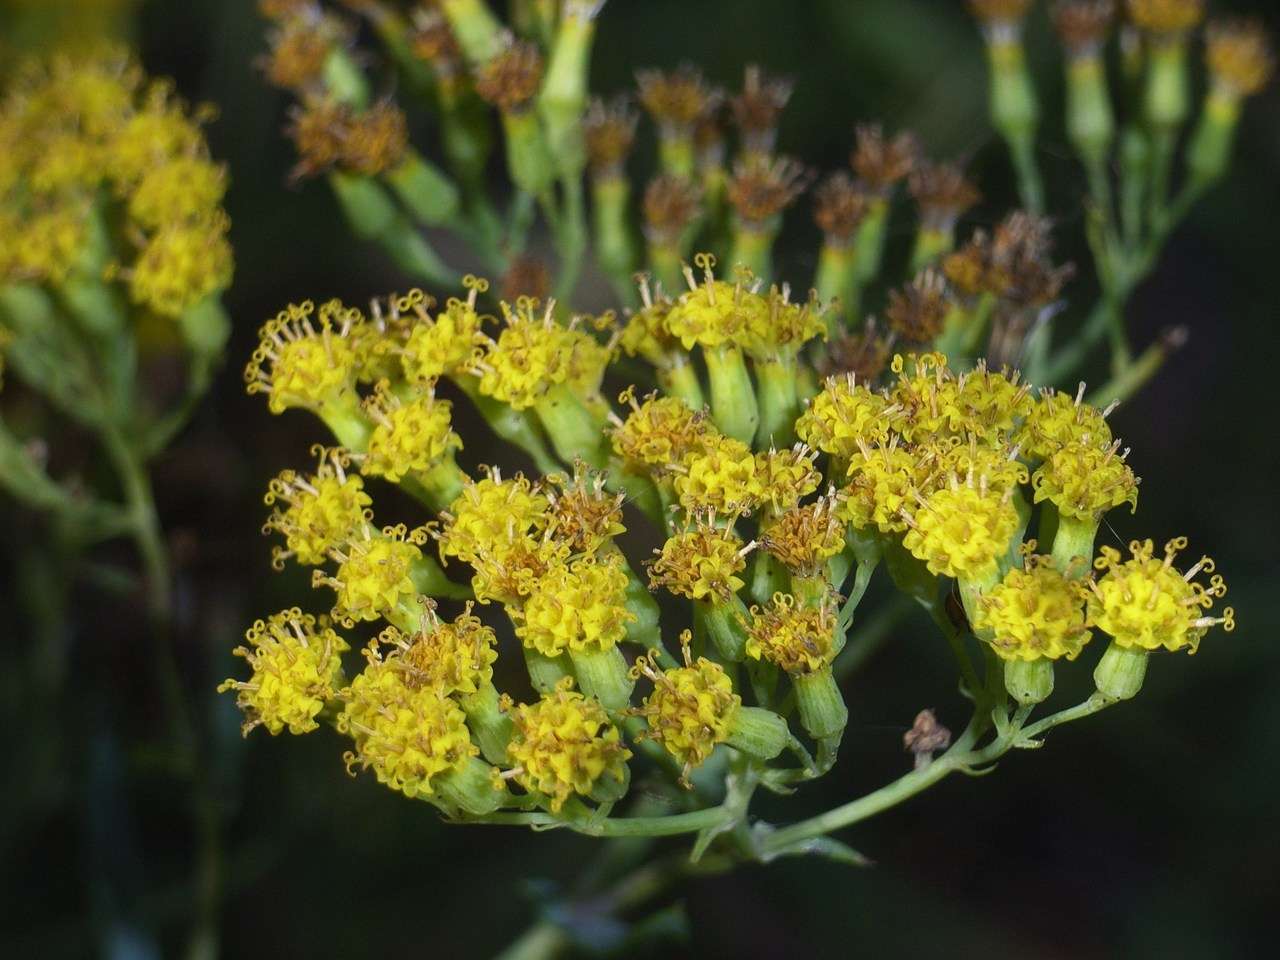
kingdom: Plantae
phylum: Tracheophyta
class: Magnoliopsida
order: Asterales
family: Asteraceae
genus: Senecio
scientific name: Senecio odoratus
